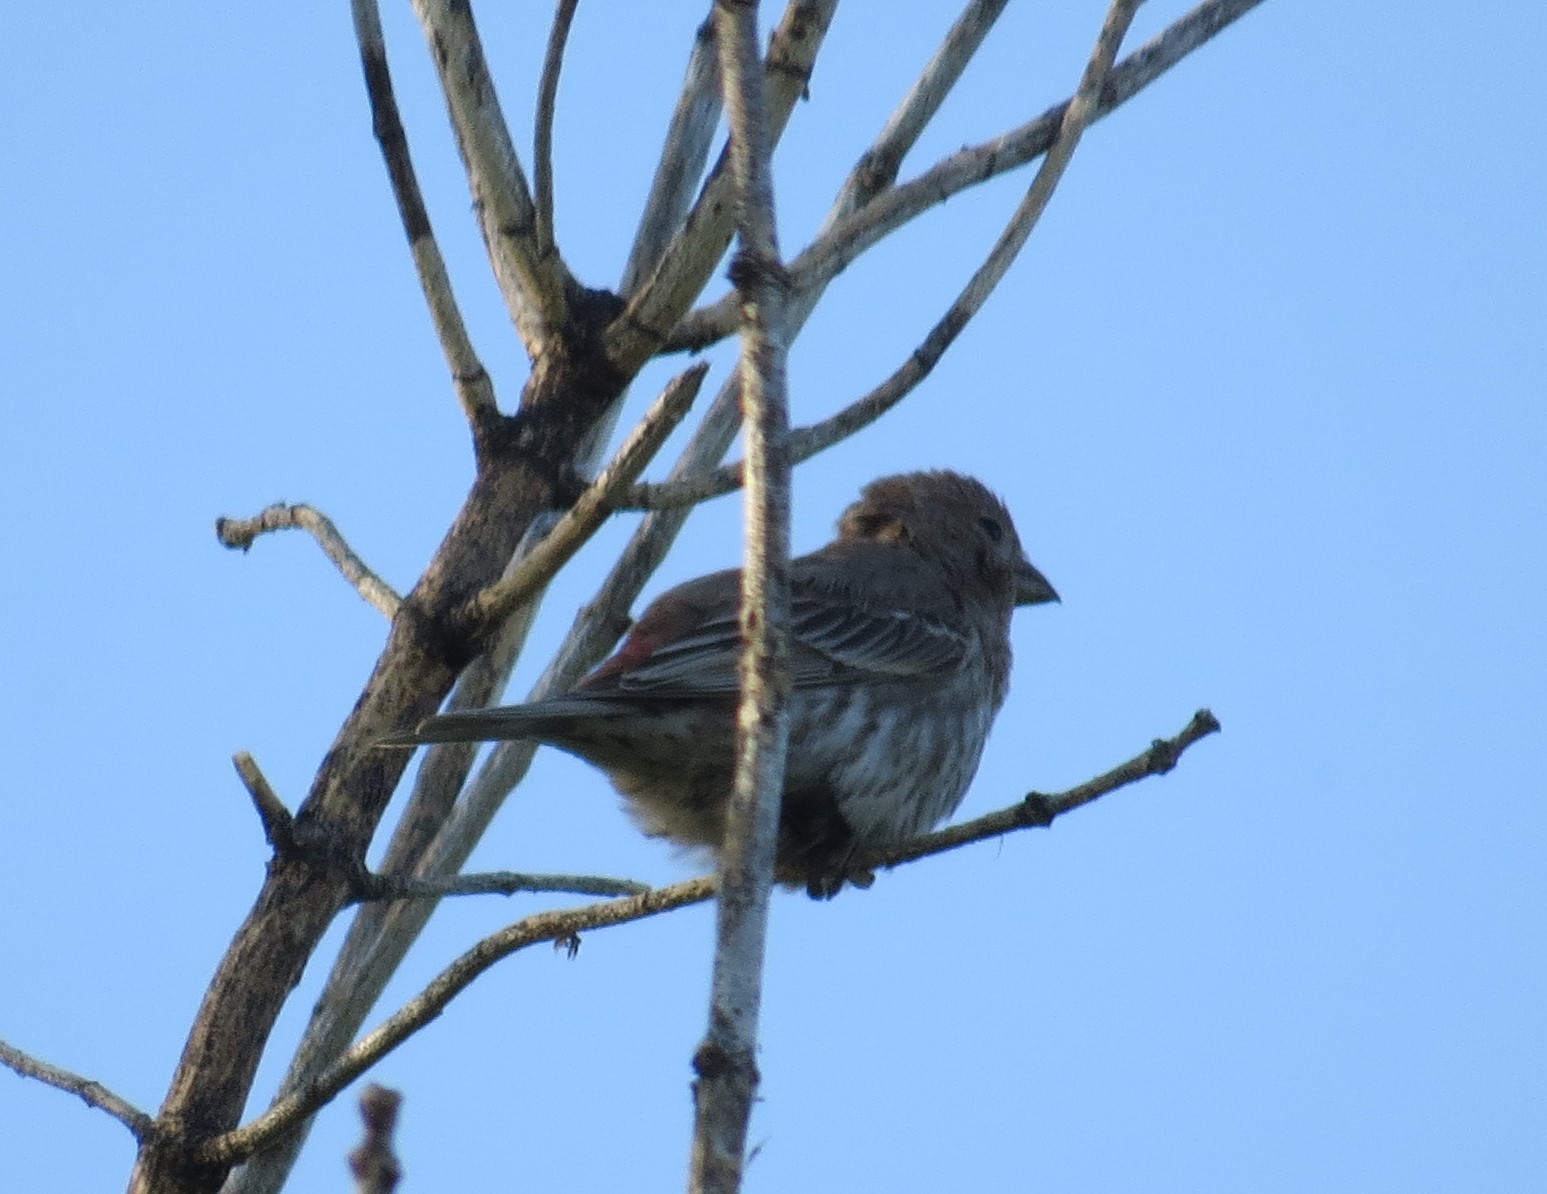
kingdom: Animalia
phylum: Chordata
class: Aves
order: Passeriformes
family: Fringillidae
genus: Haemorhous
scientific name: Haemorhous mexicanus
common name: House finch
